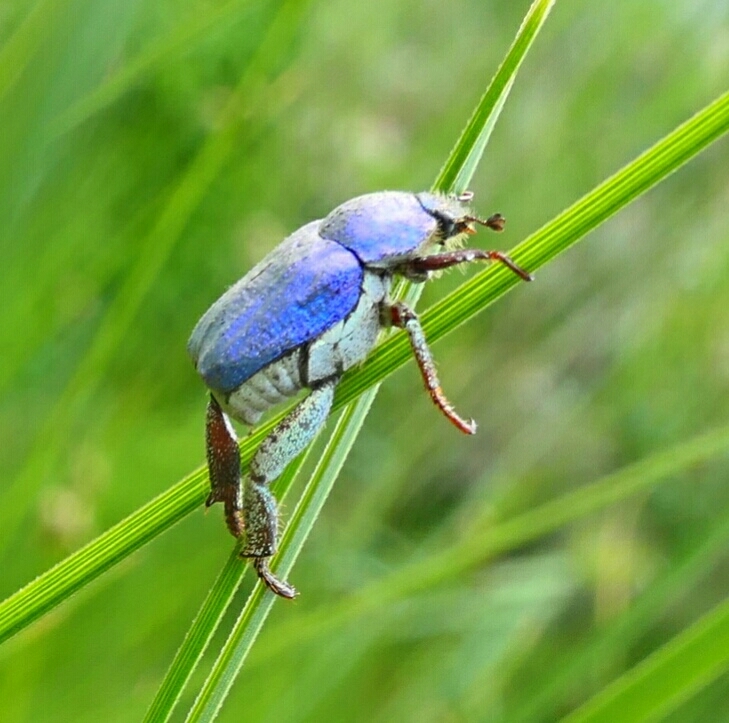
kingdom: Animalia
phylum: Arthropoda
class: Insecta
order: Coleoptera
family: Scarabaeidae
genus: Hoplia
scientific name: Hoplia coerulea
